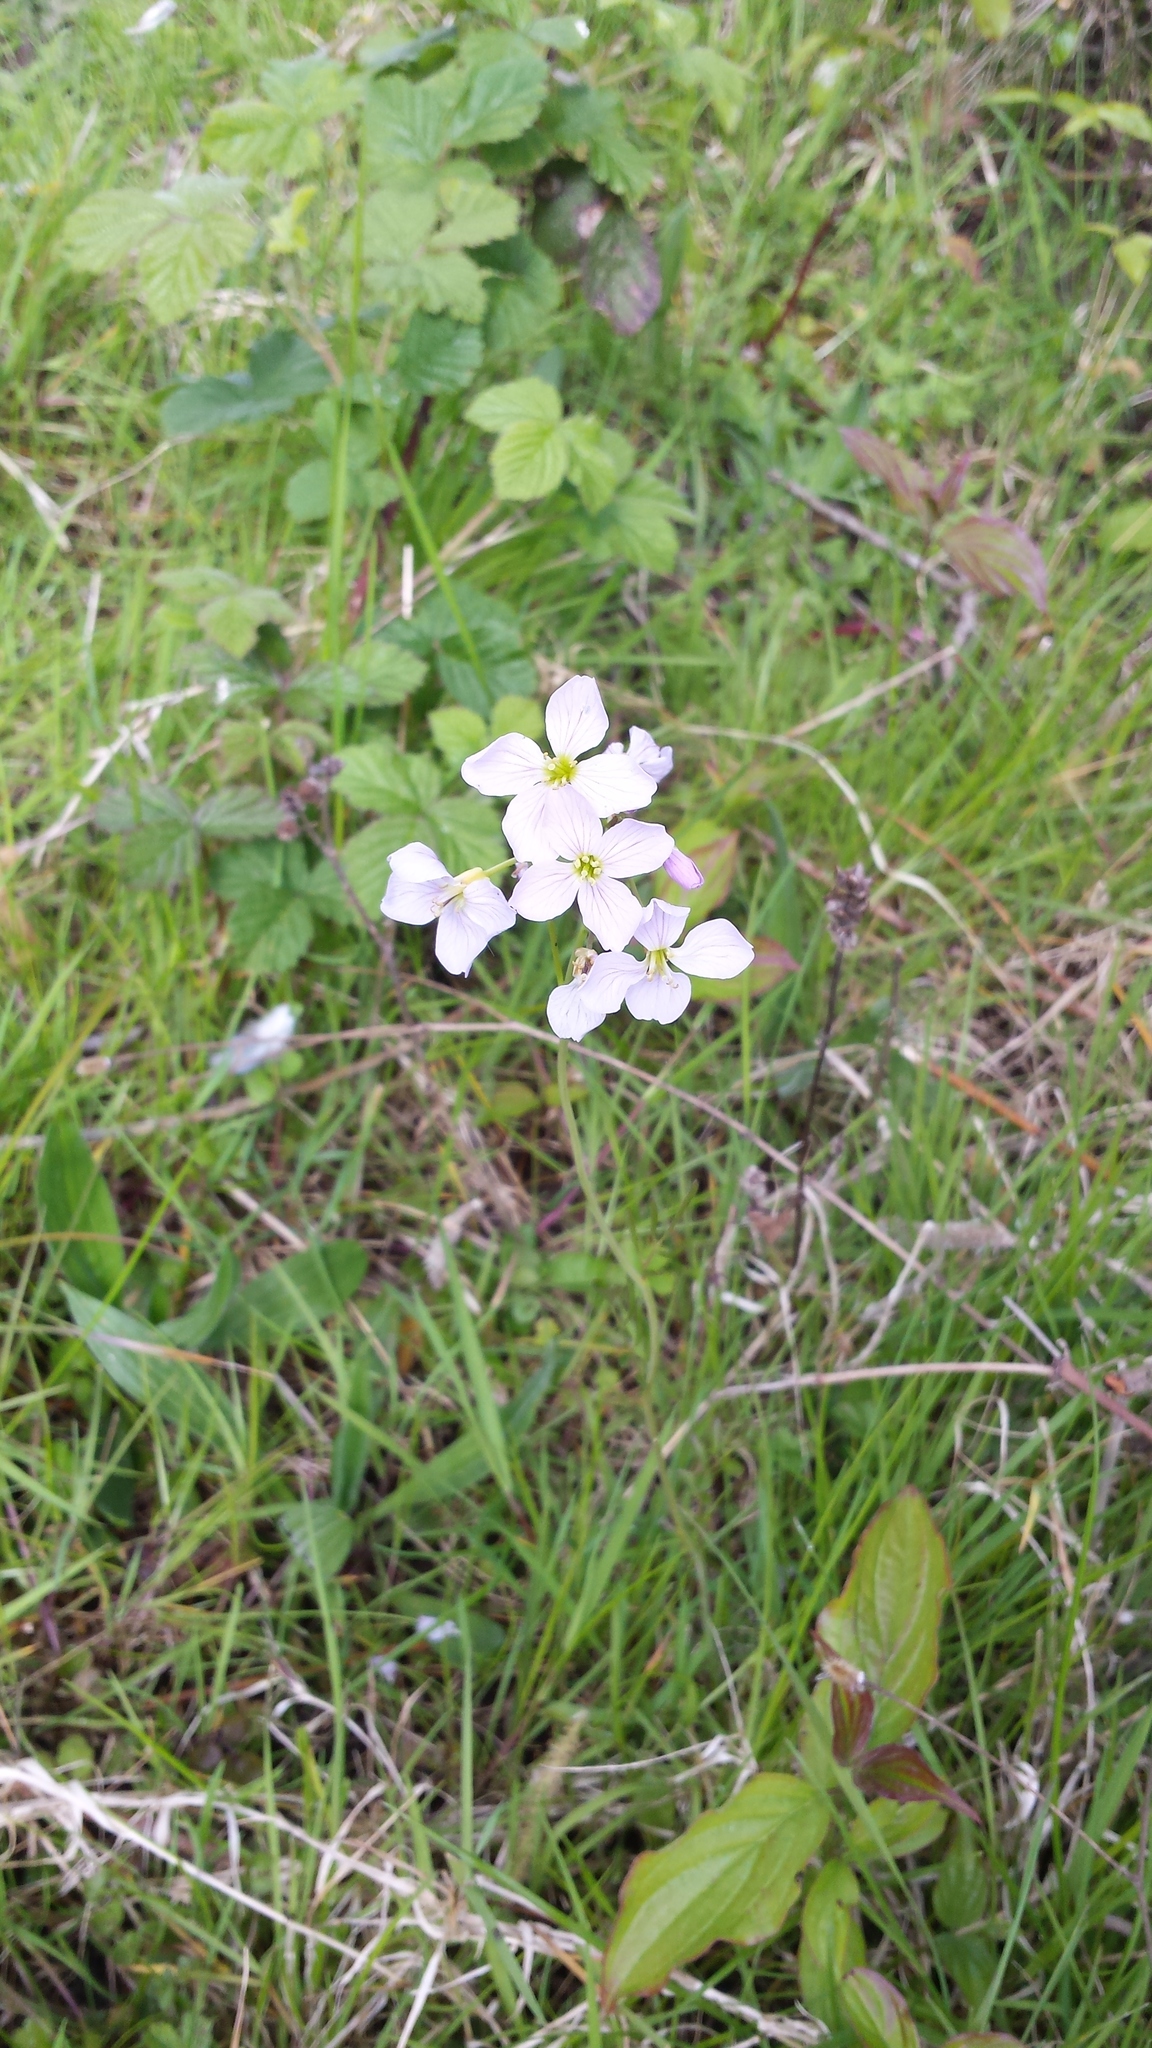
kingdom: Plantae
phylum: Tracheophyta
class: Magnoliopsida
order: Brassicales
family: Brassicaceae
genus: Cardamine
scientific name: Cardamine pratensis
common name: Cuckoo flower
